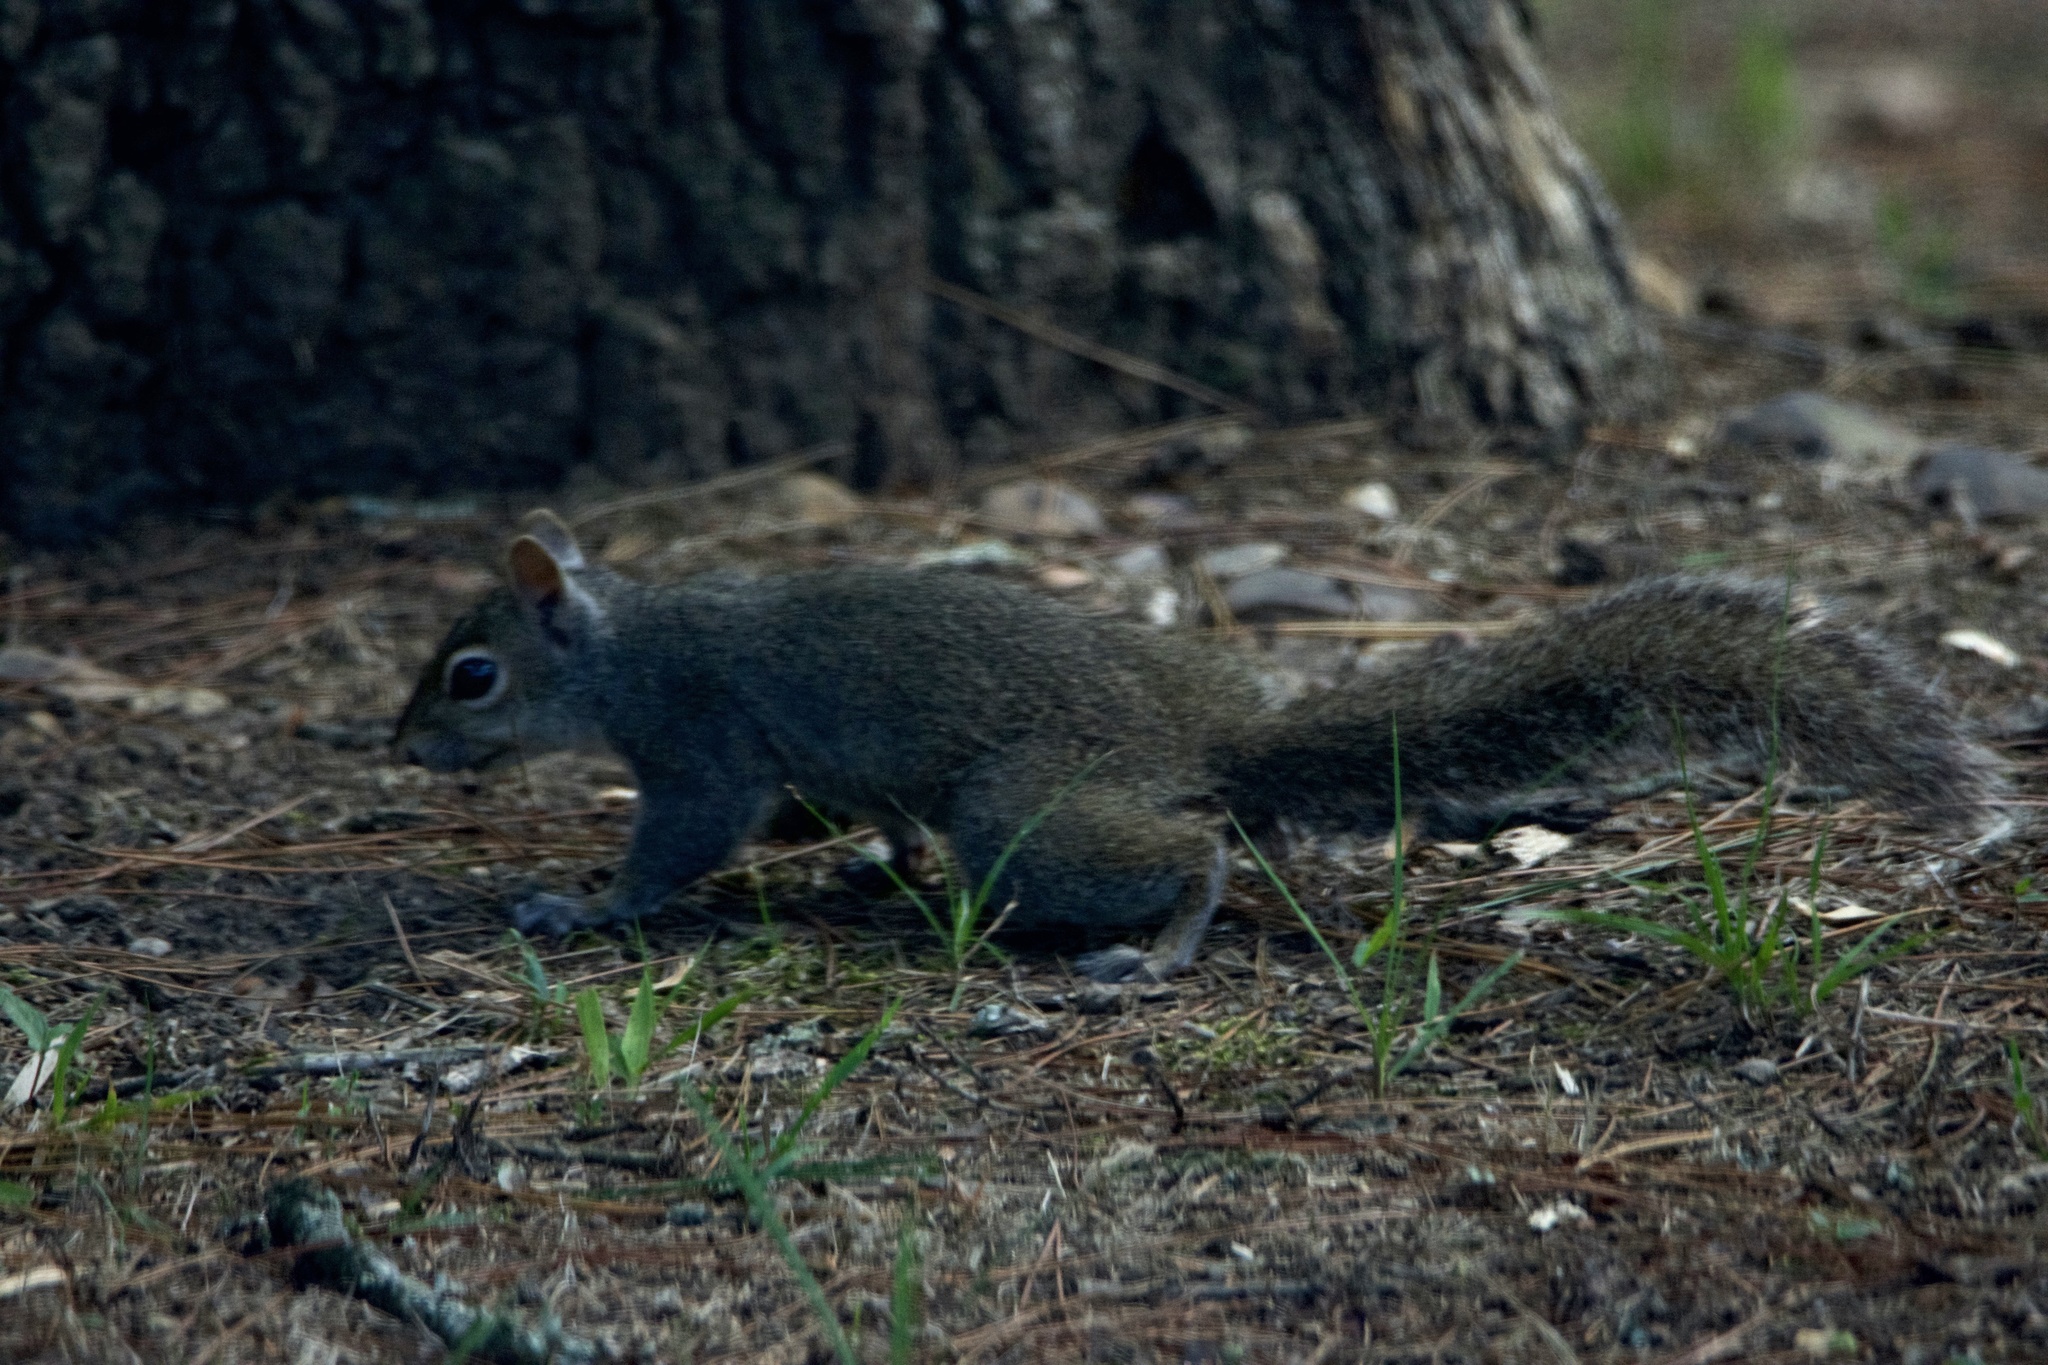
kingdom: Animalia
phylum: Chordata
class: Mammalia
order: Rodentia
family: Sciuridae
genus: Sciurus
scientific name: Sciurus carolinensis
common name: Eastern gray squirrel
